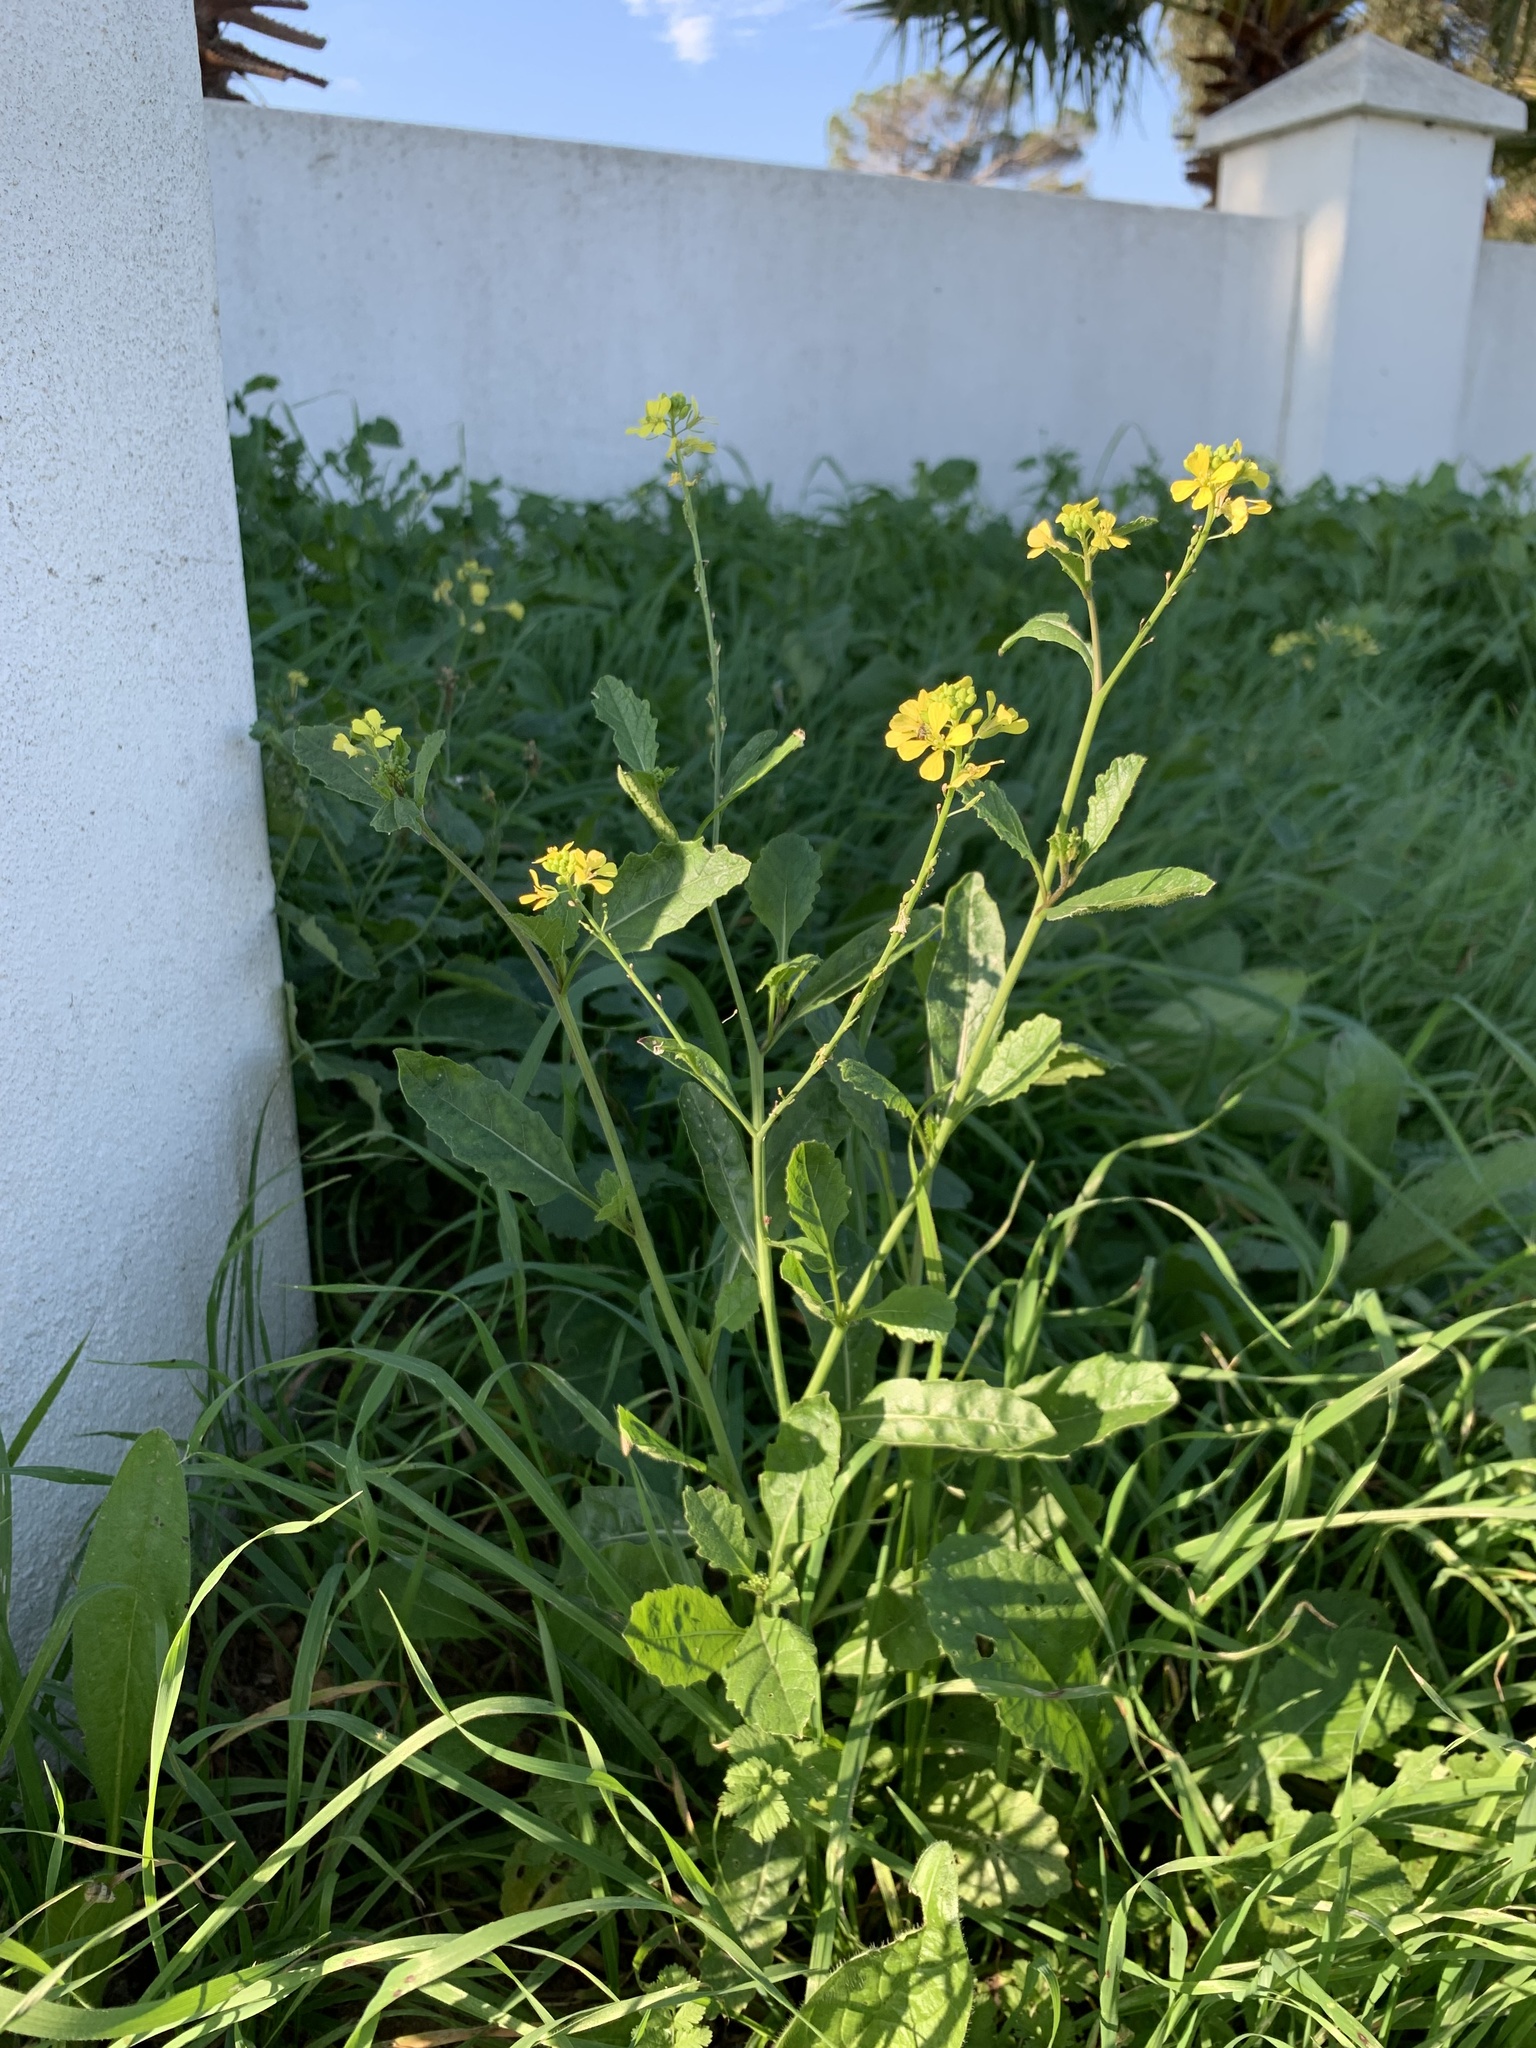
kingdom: Plantae
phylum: Tracheophyta
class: Magnoliopsida
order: Brassicales
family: Brassicaceae
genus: Rapistrum
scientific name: Rapistrum rugosum
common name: Annual bastardcabbage
